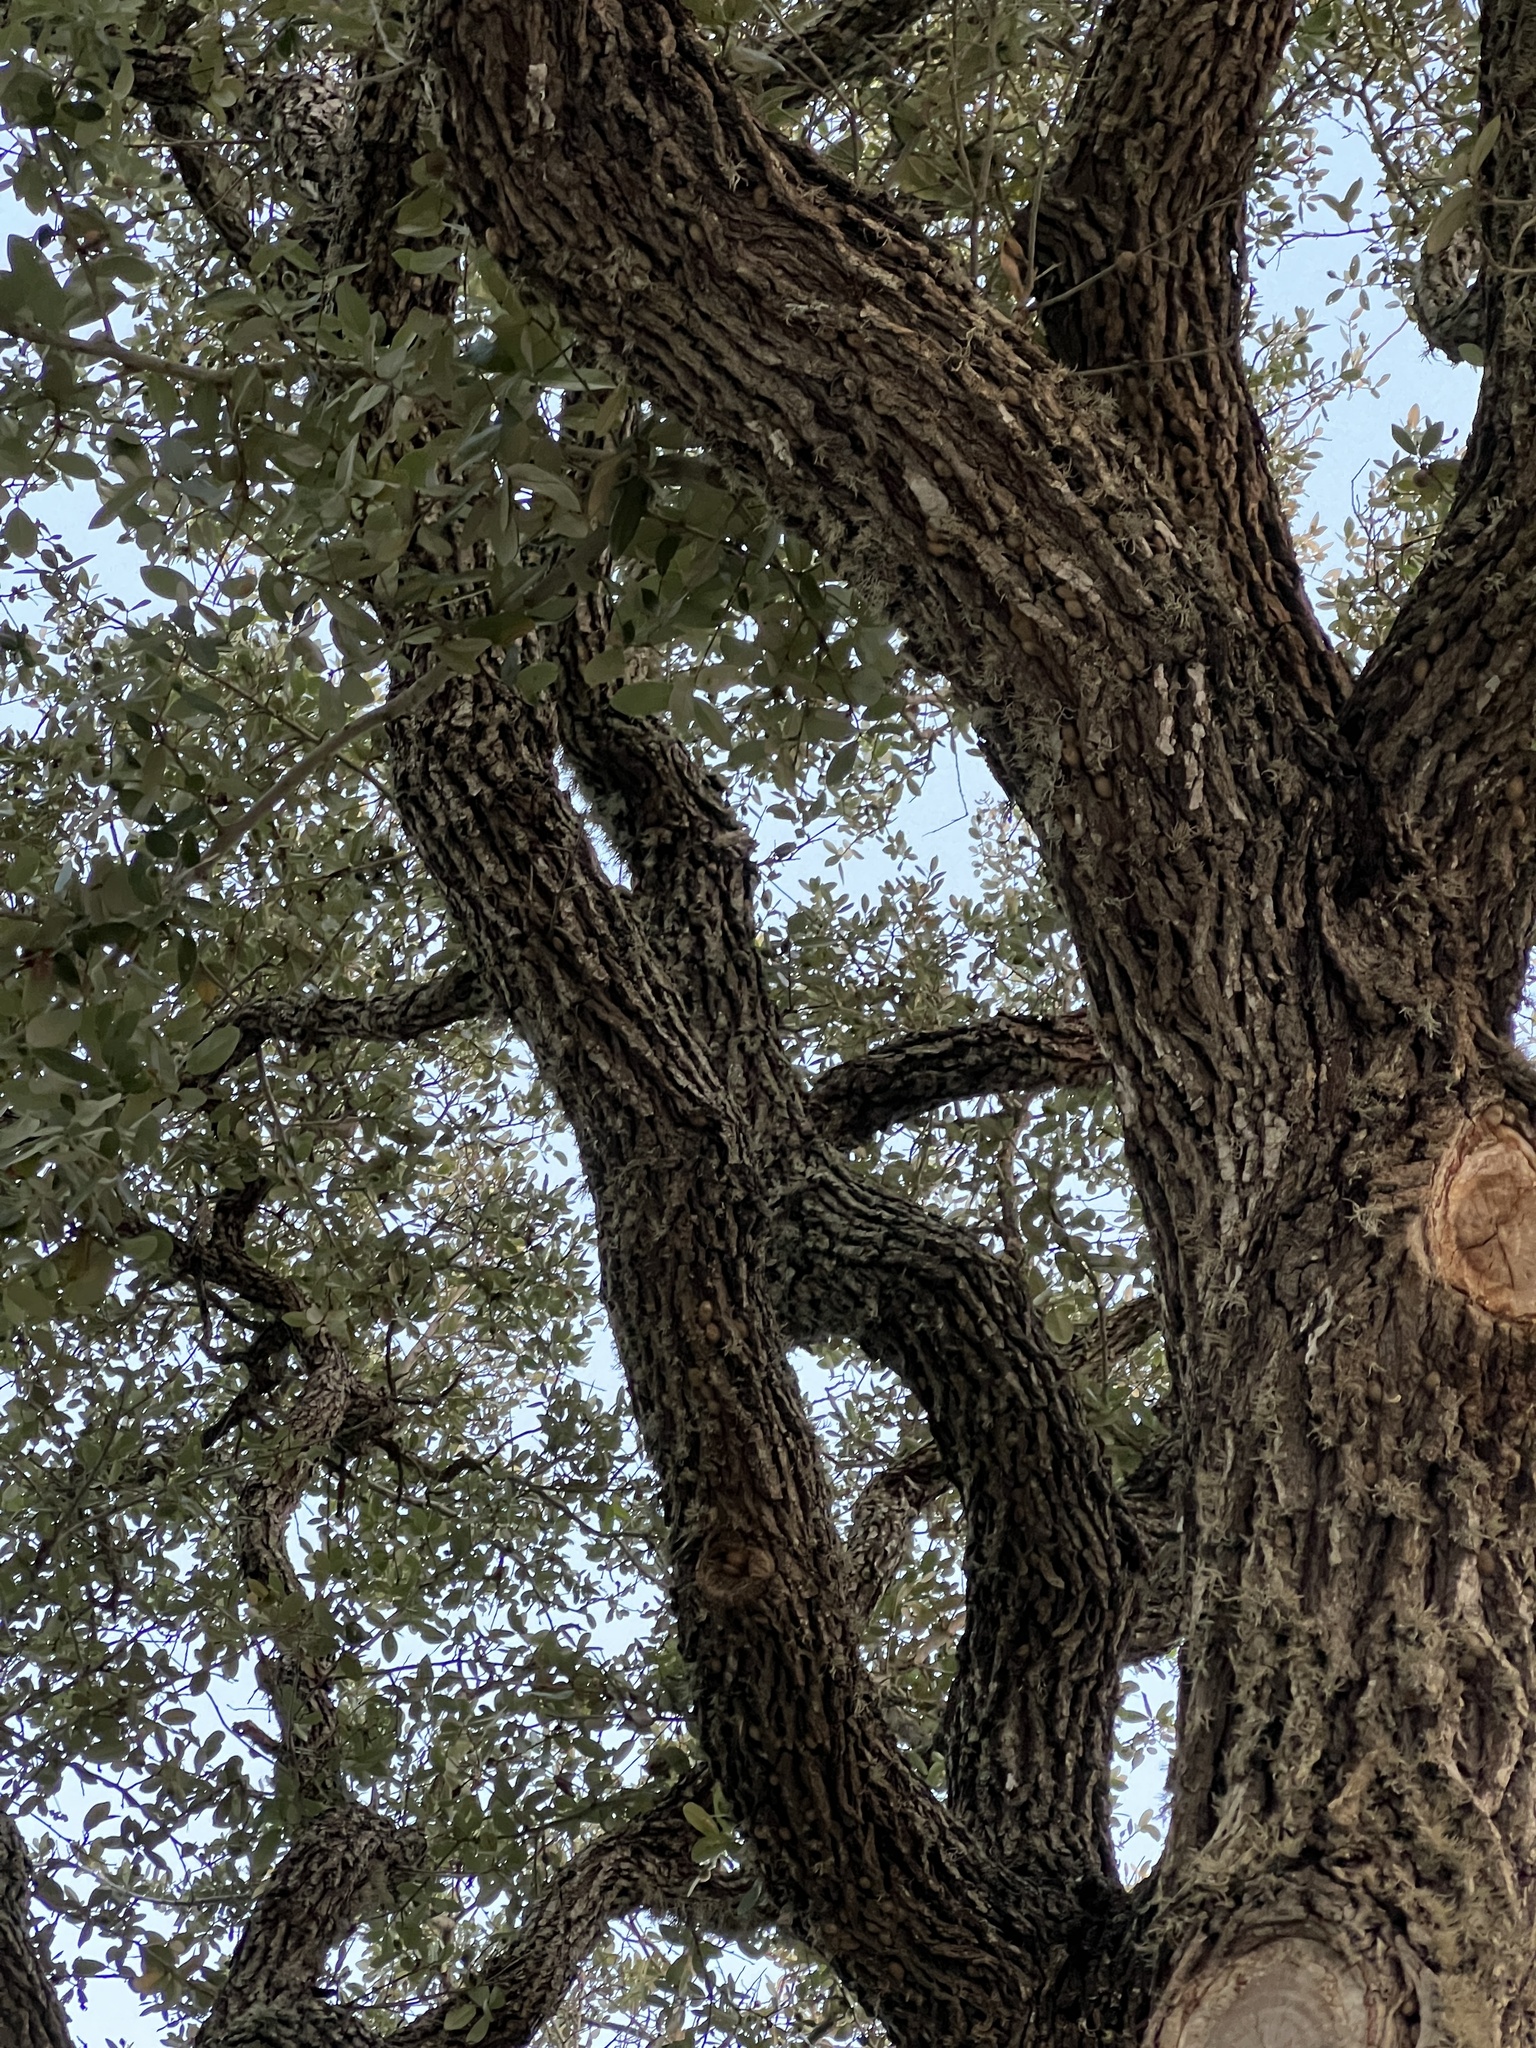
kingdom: Plantae
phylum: Tracheophyta
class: Magnoliopsida
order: Fagales
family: Fagaceae
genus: Quercus
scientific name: Quercus virginiana
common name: Southern live oak
